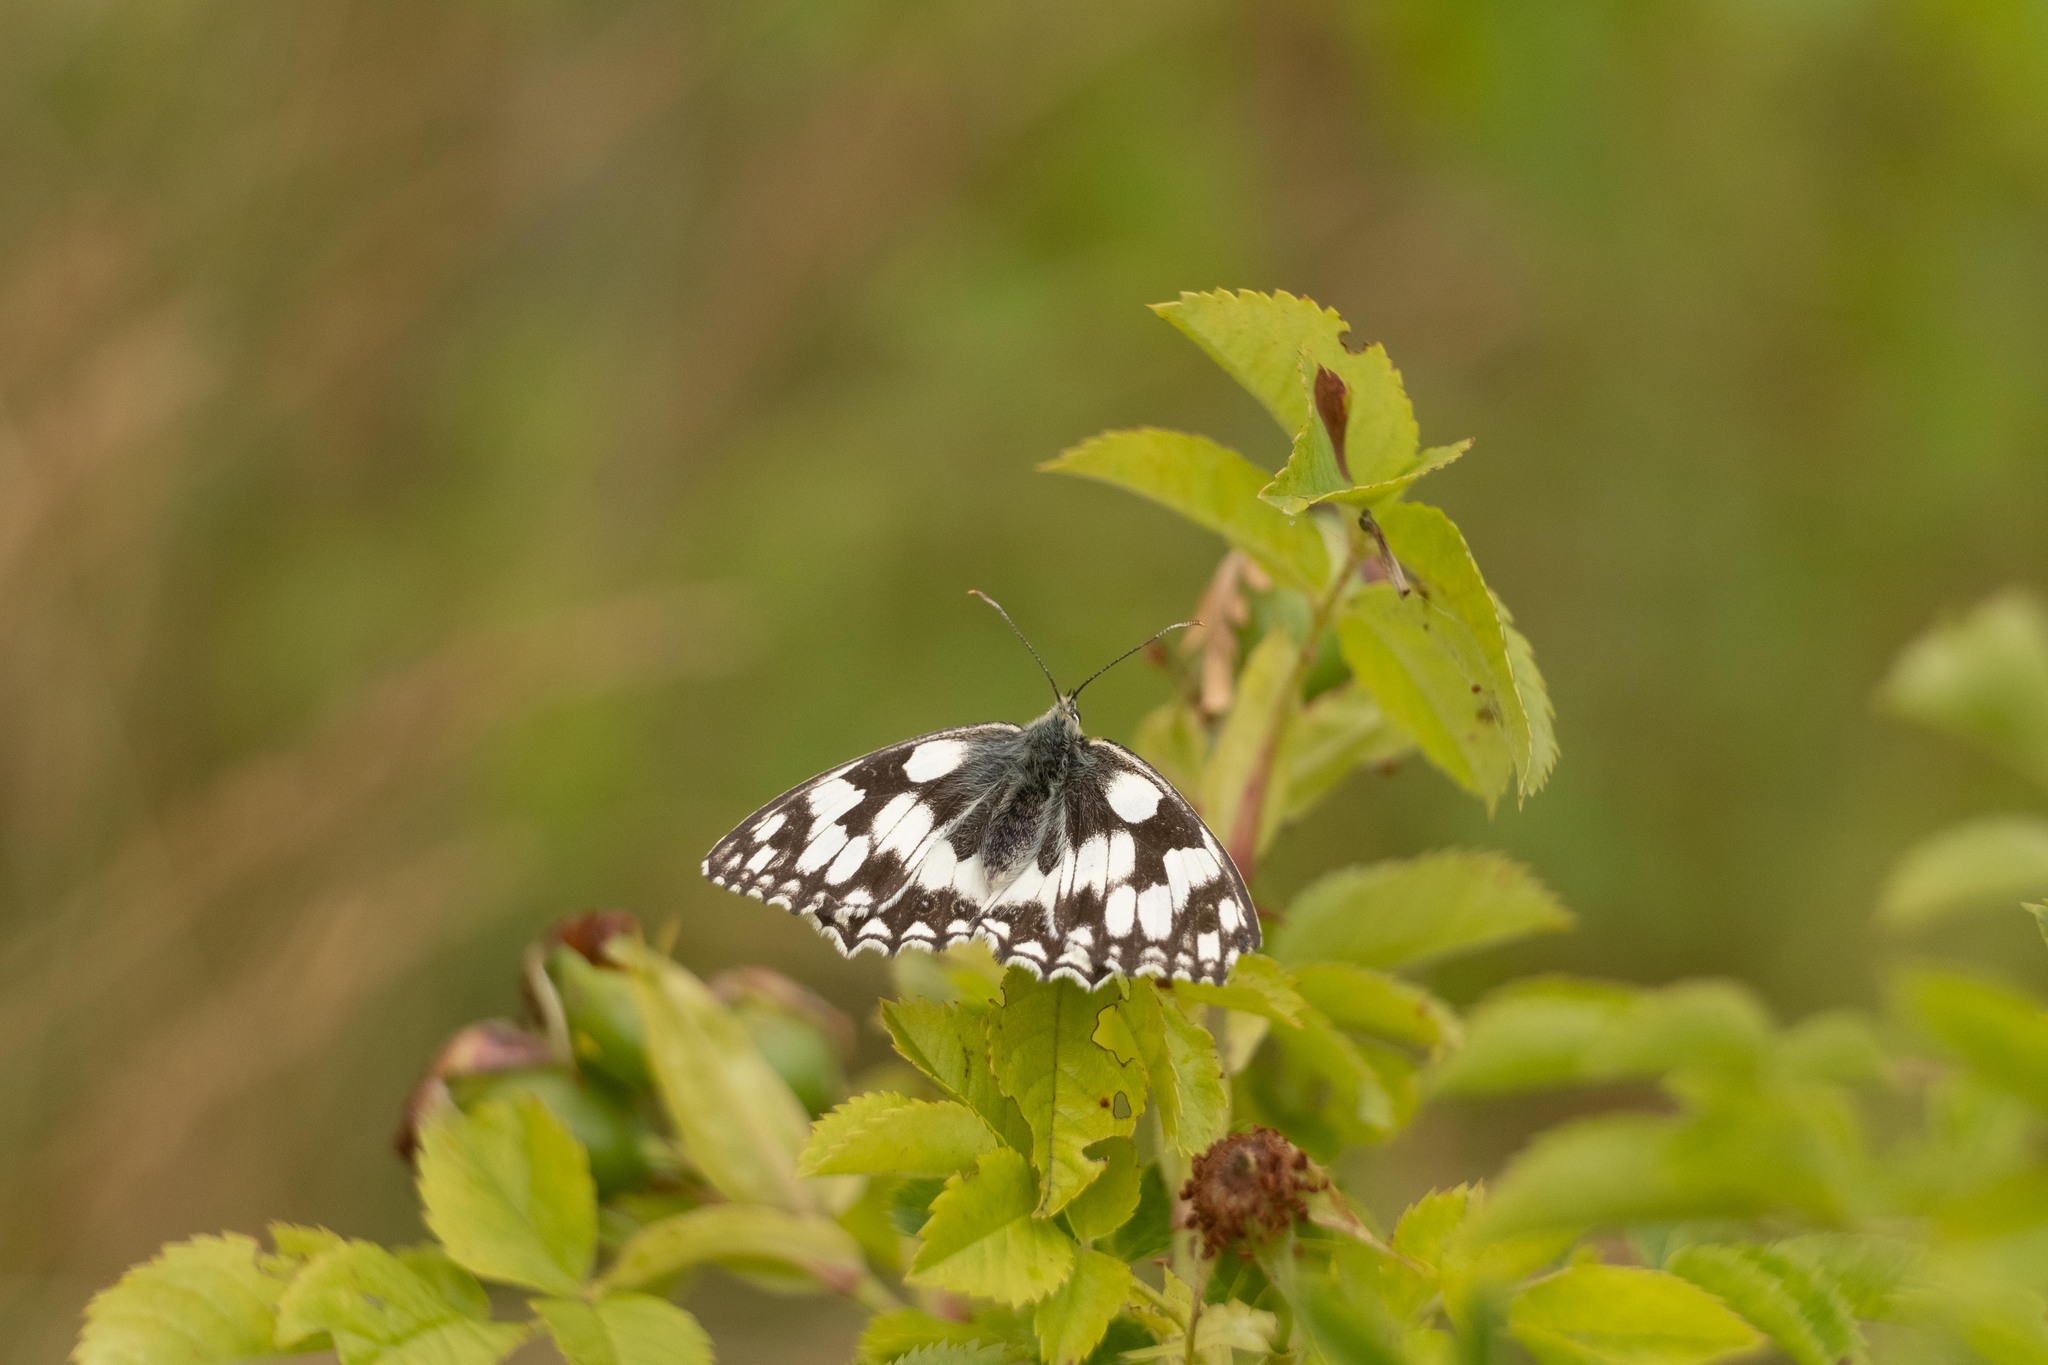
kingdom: Animalia
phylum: Arthropoda
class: Insecta
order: Lepidoptera
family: Nymphalidae
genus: Melanargia
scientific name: Melanargia galathea
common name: Marbled white
